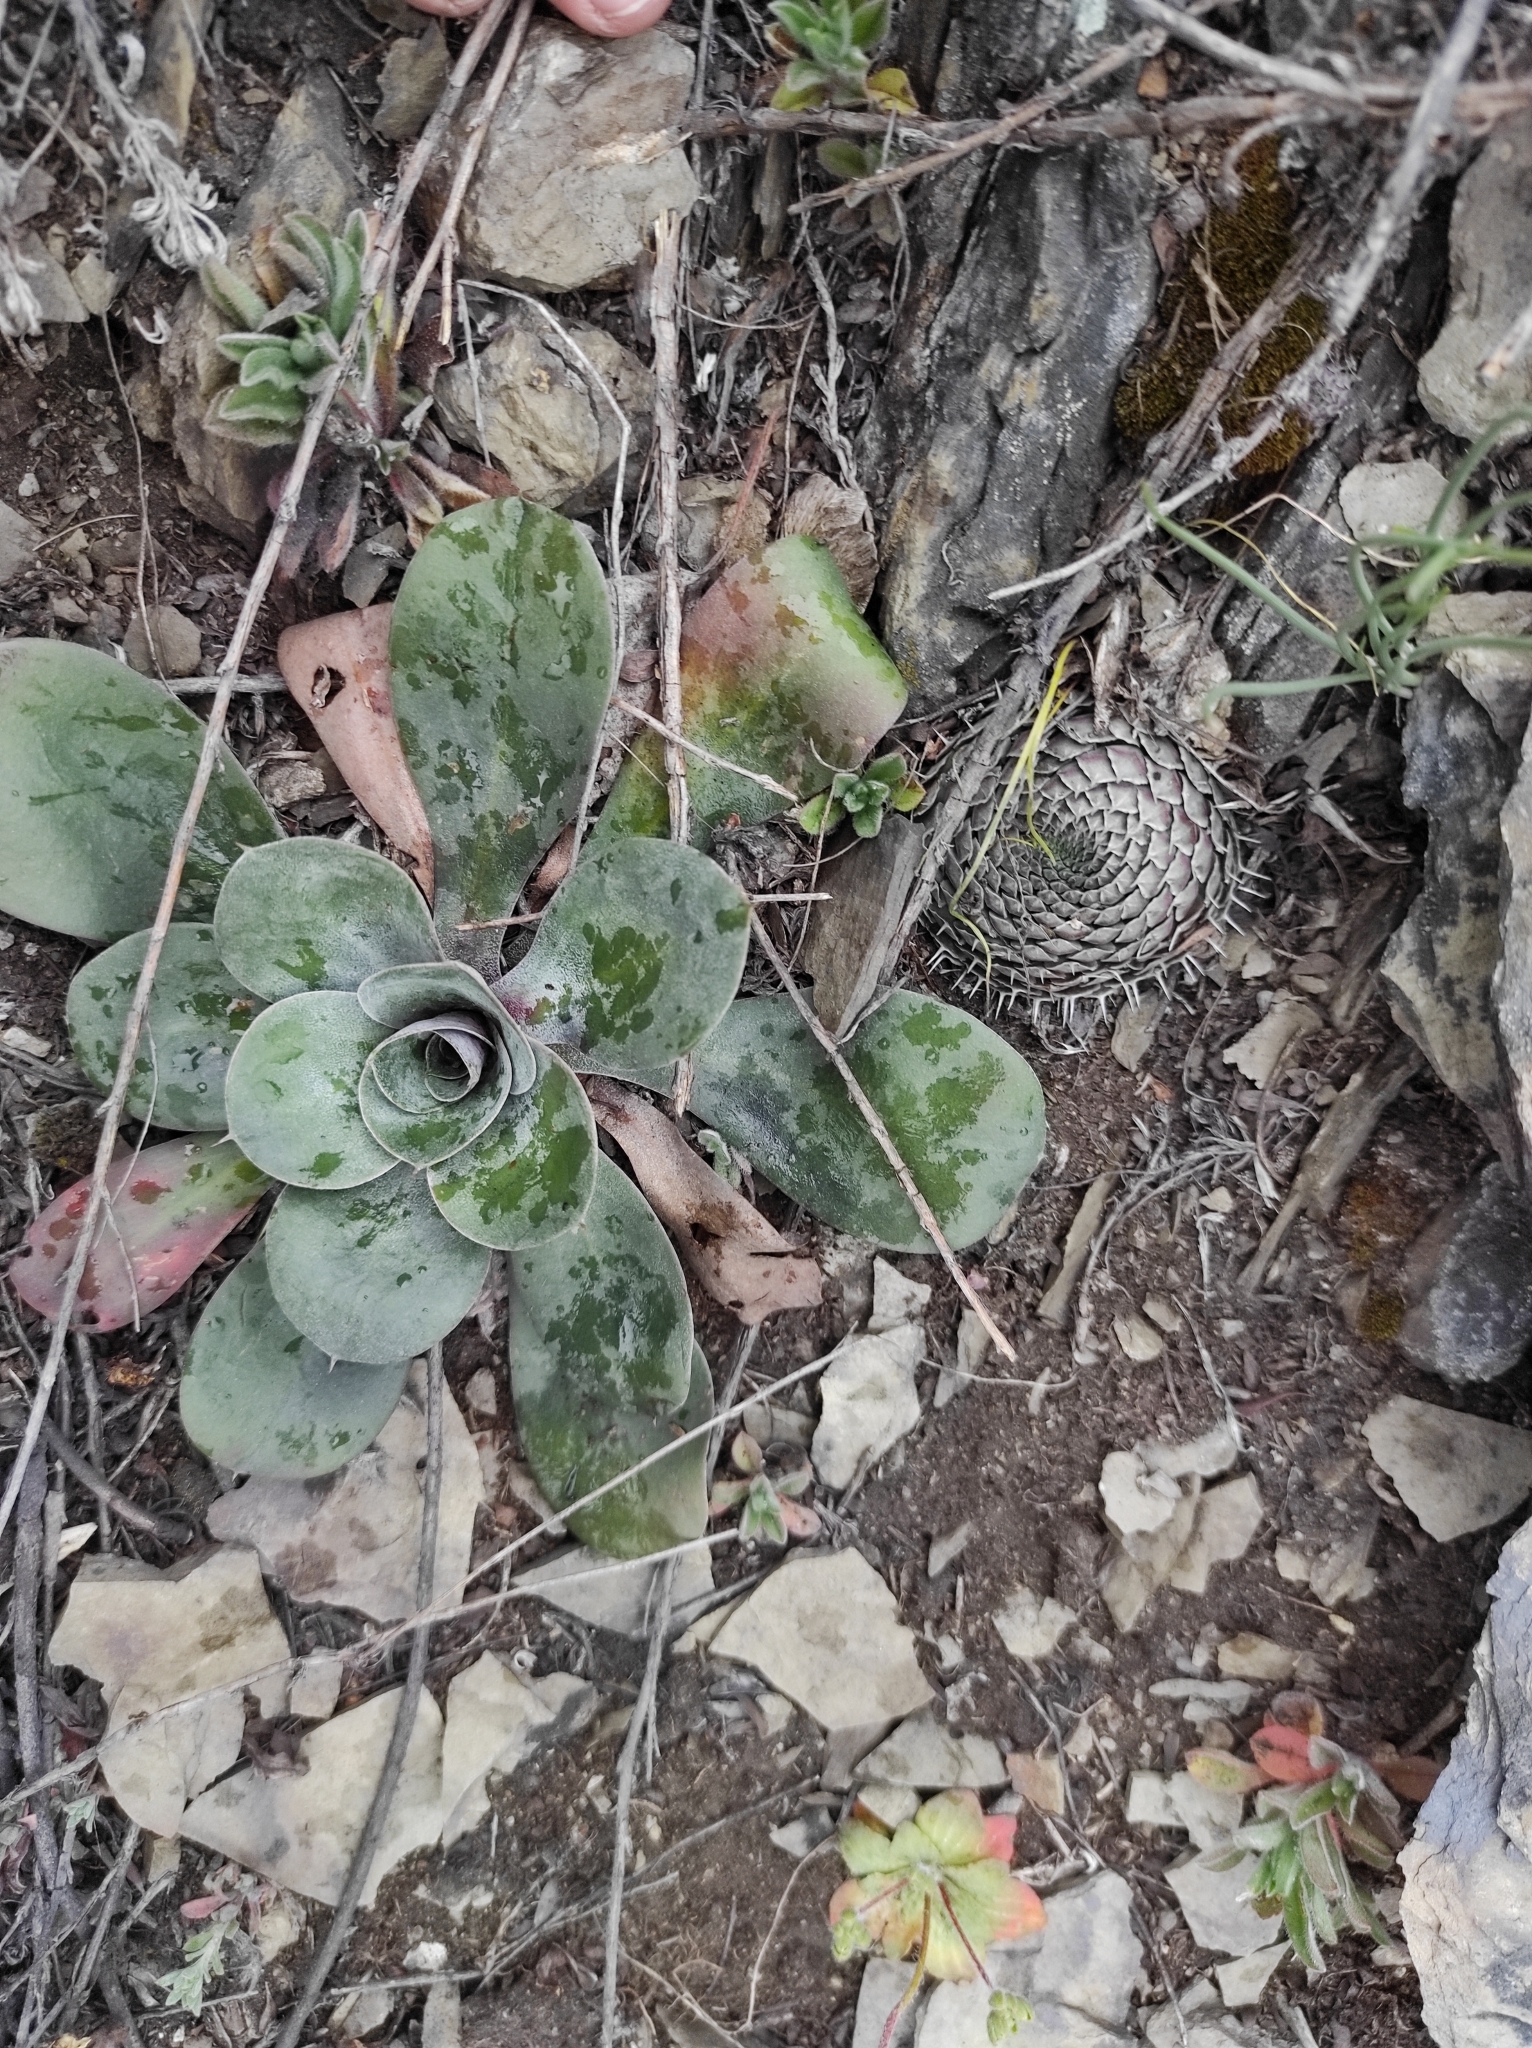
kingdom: Plantae
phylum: Tracheophyta
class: Magnoliopsida
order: Caryophyllales
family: Plumbaginaceae
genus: Goniolimon
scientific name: Goniolimon speciosum
